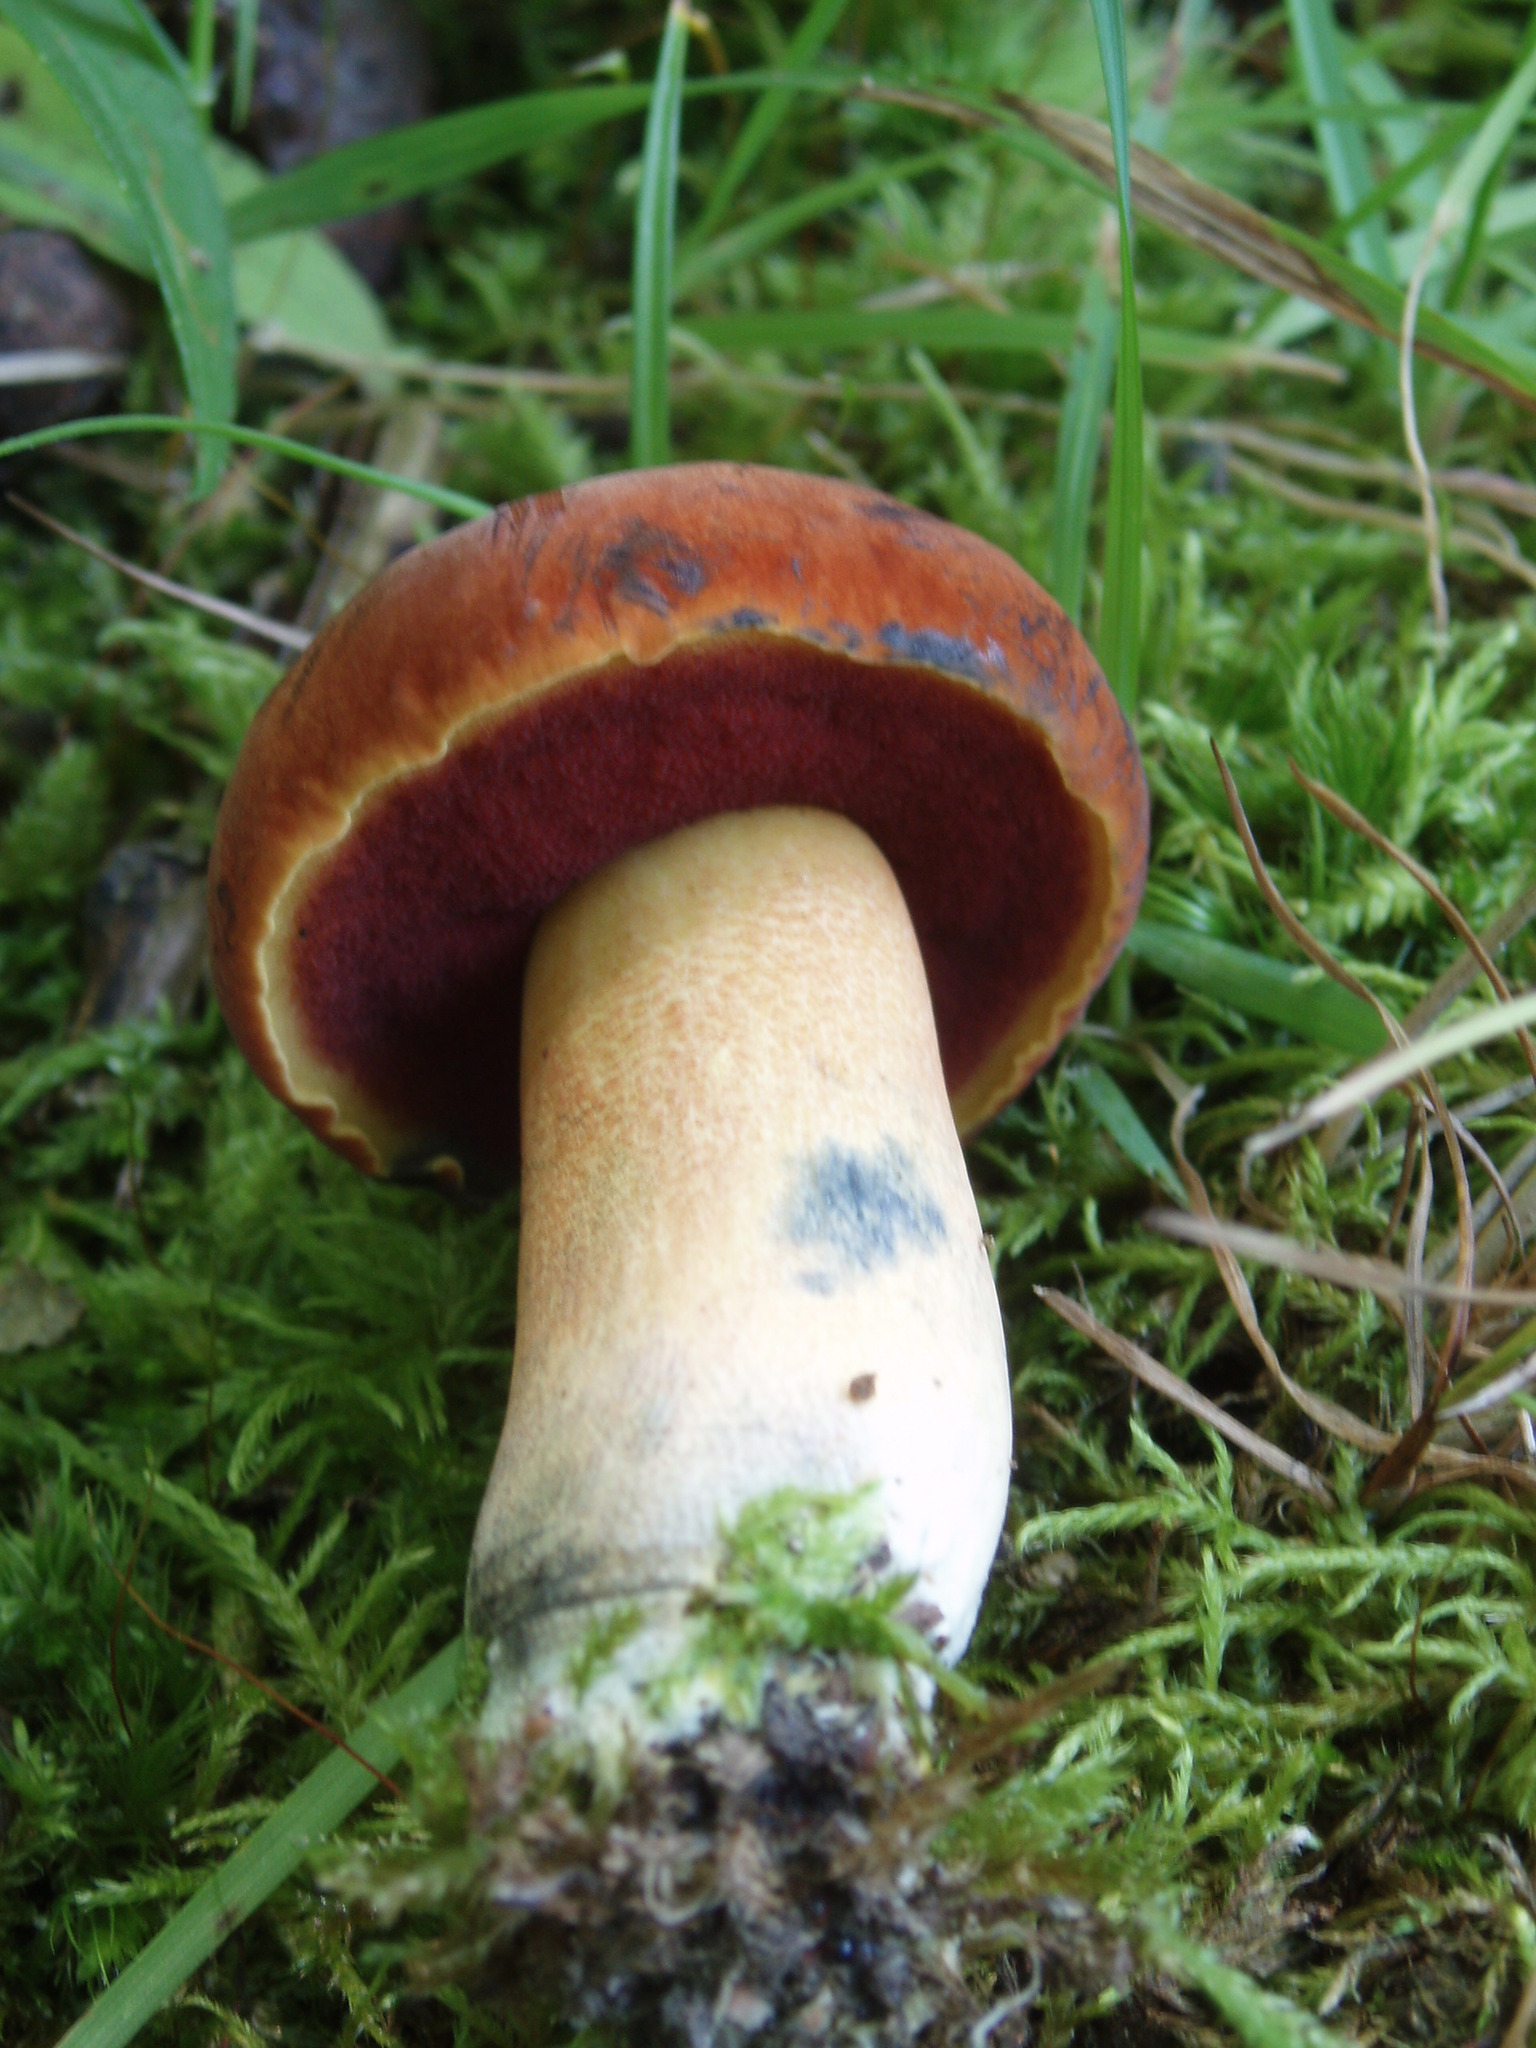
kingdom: Fungi
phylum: Basidiomycota
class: Agaricomycetes
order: Boletales
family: Boletaceae
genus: Boletus
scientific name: Boletus subvelutipes
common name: Red-mouth bolete
